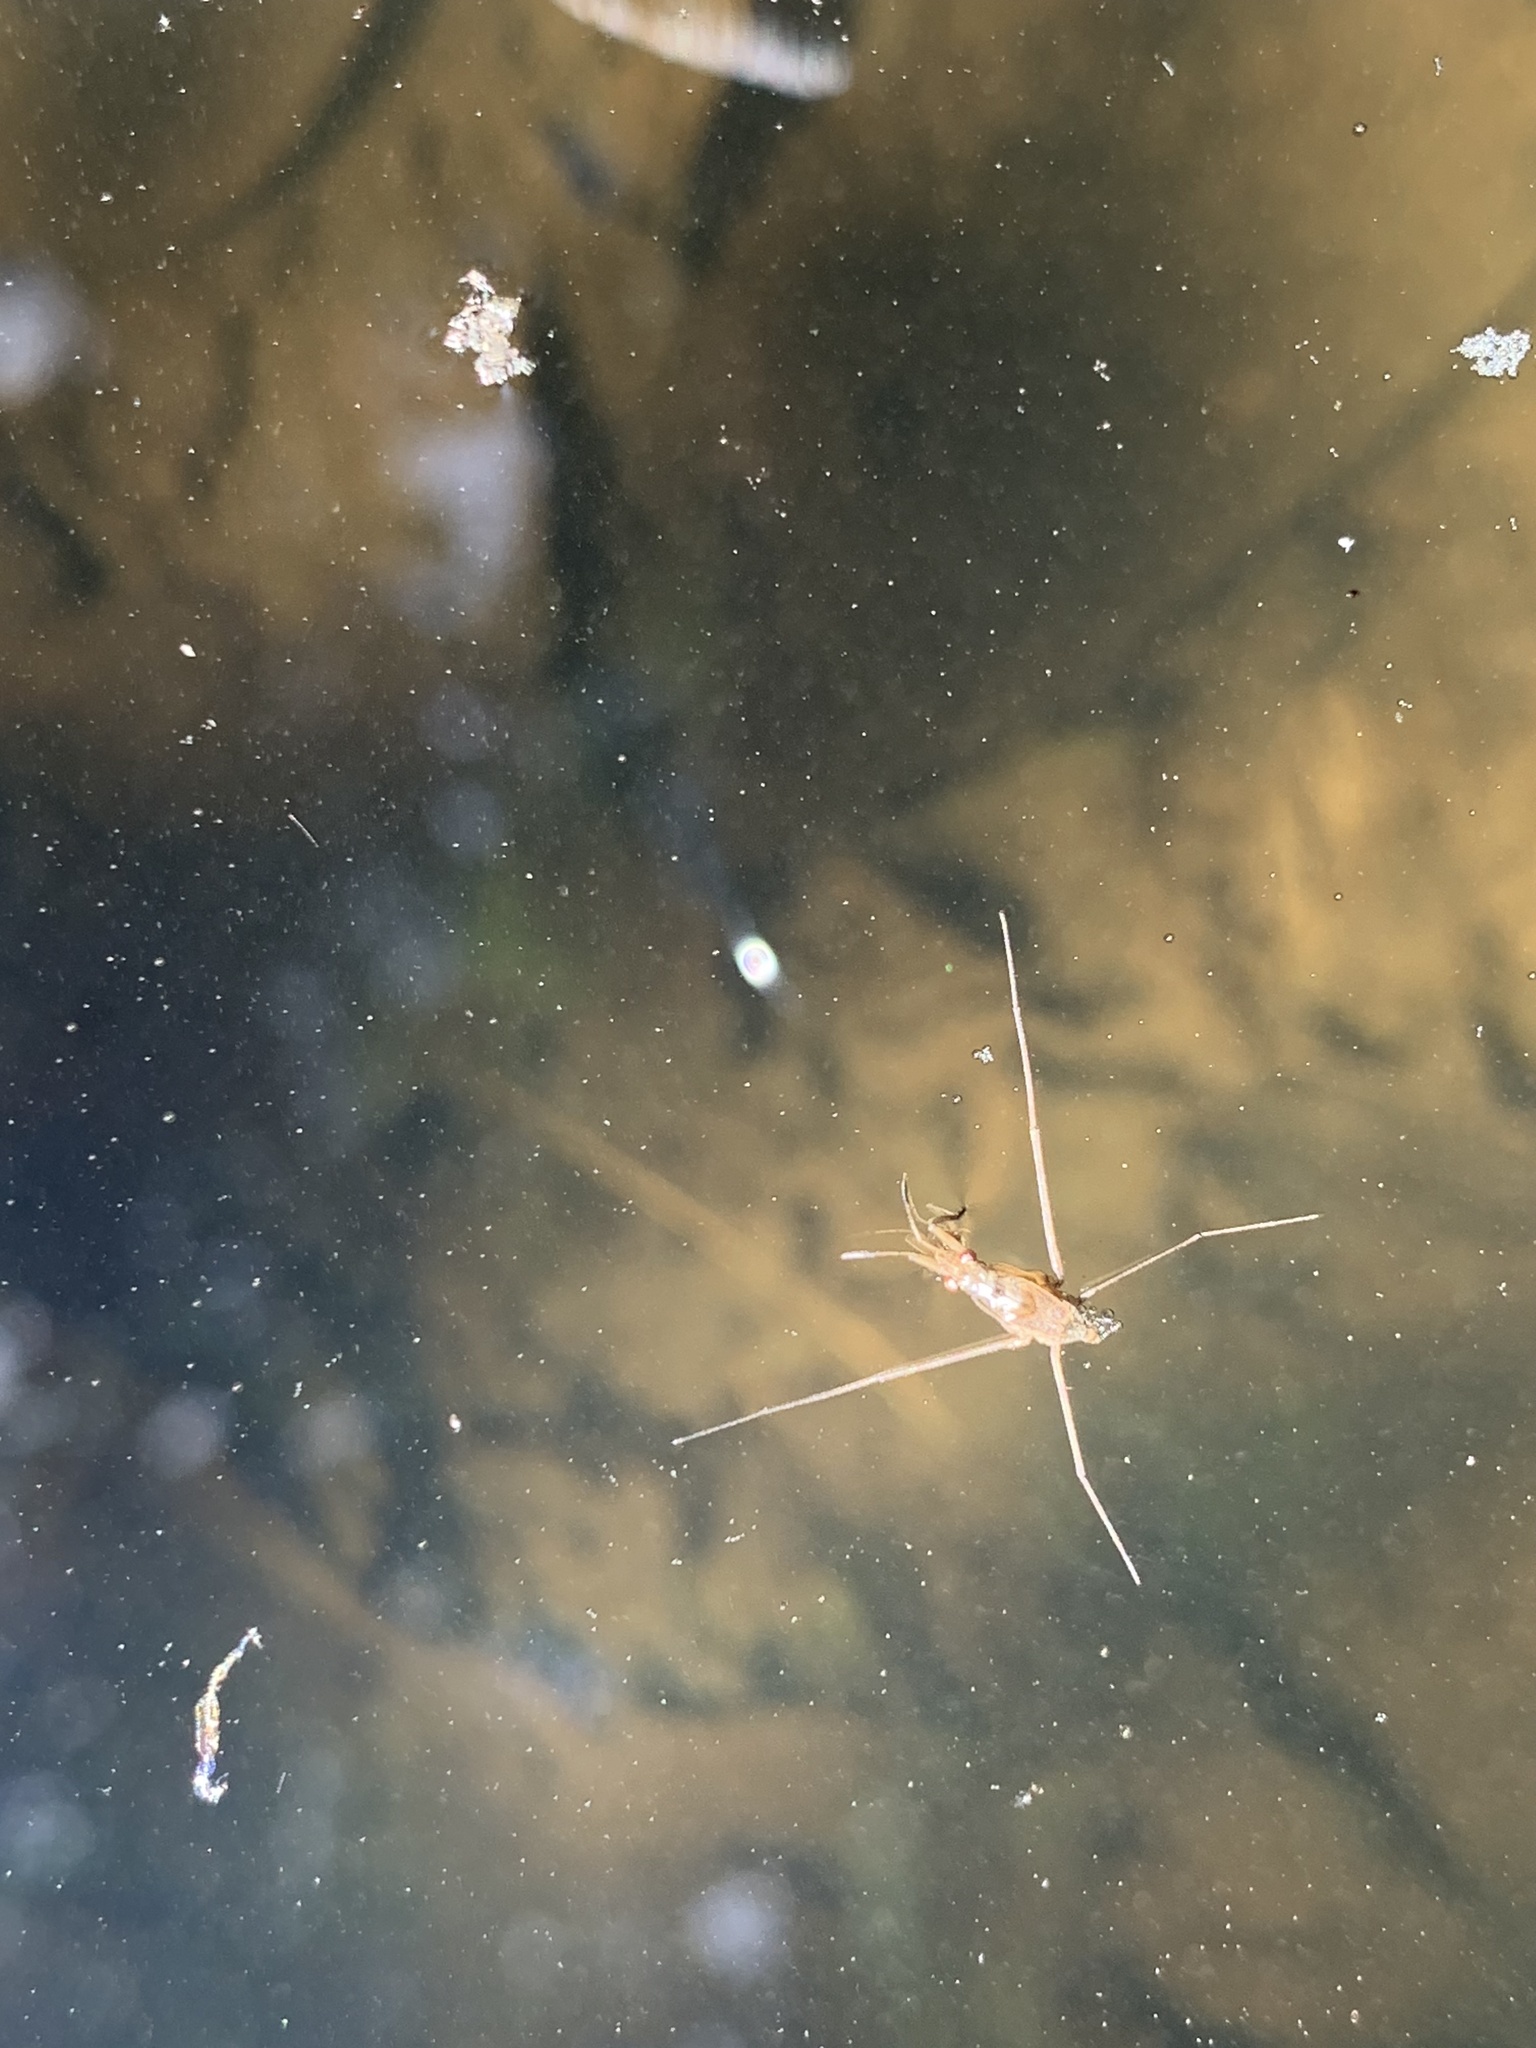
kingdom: Animalia
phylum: Arthropoda
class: Insecta
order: Hemiptera
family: Gerridae
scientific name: Gerridae
